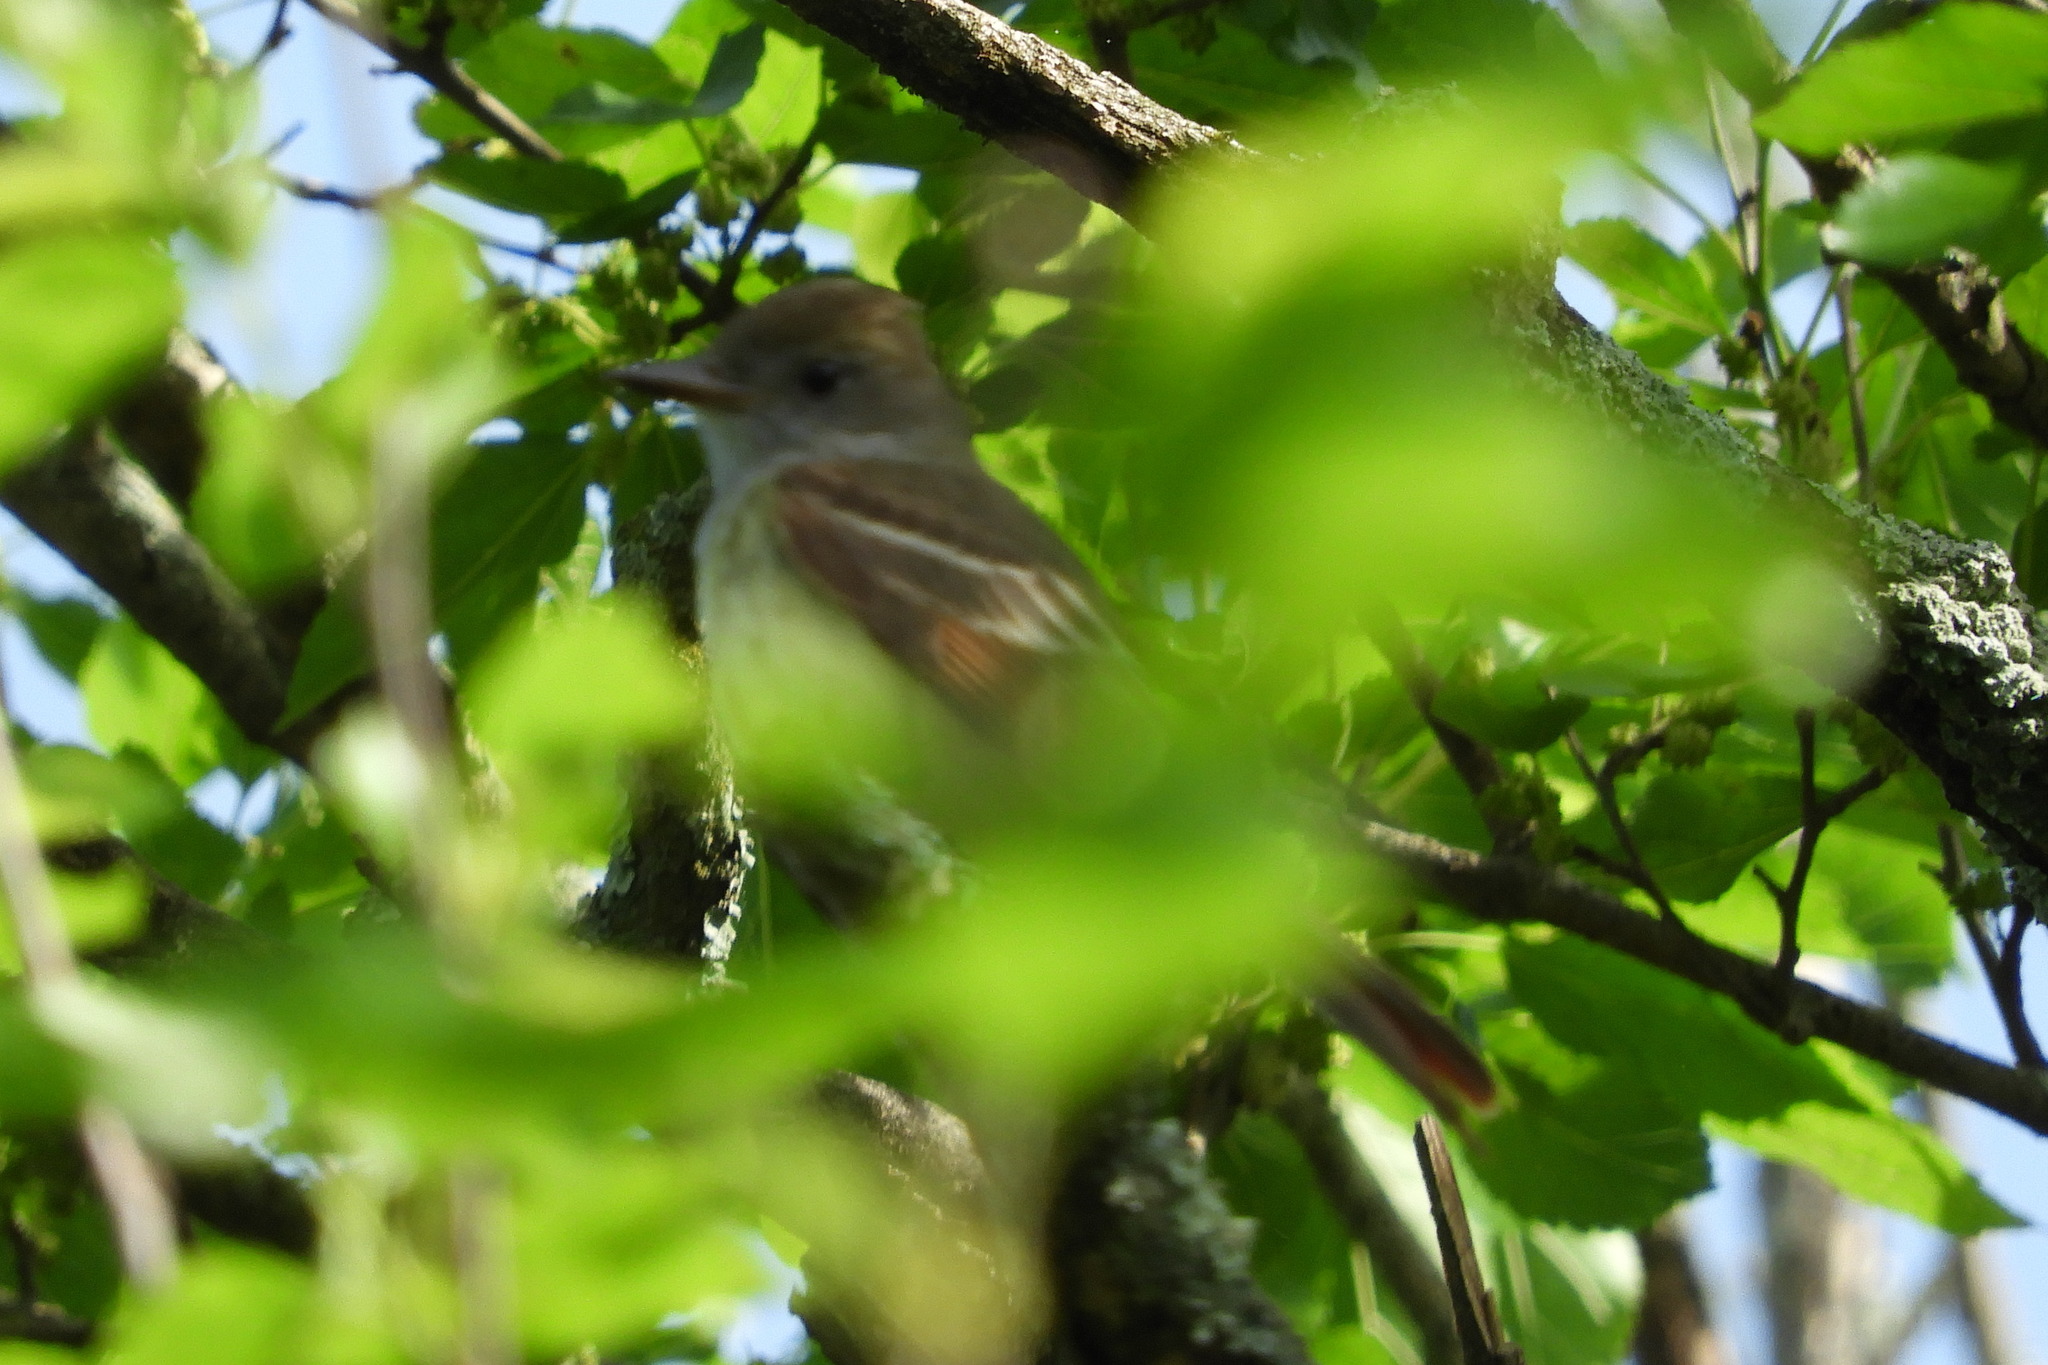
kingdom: Animalia
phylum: Chordata
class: Aves
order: Passeriformes
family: Tyrannidae
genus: Myiarchus
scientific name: Myiarchus crinitus
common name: Great crested flycatcher
